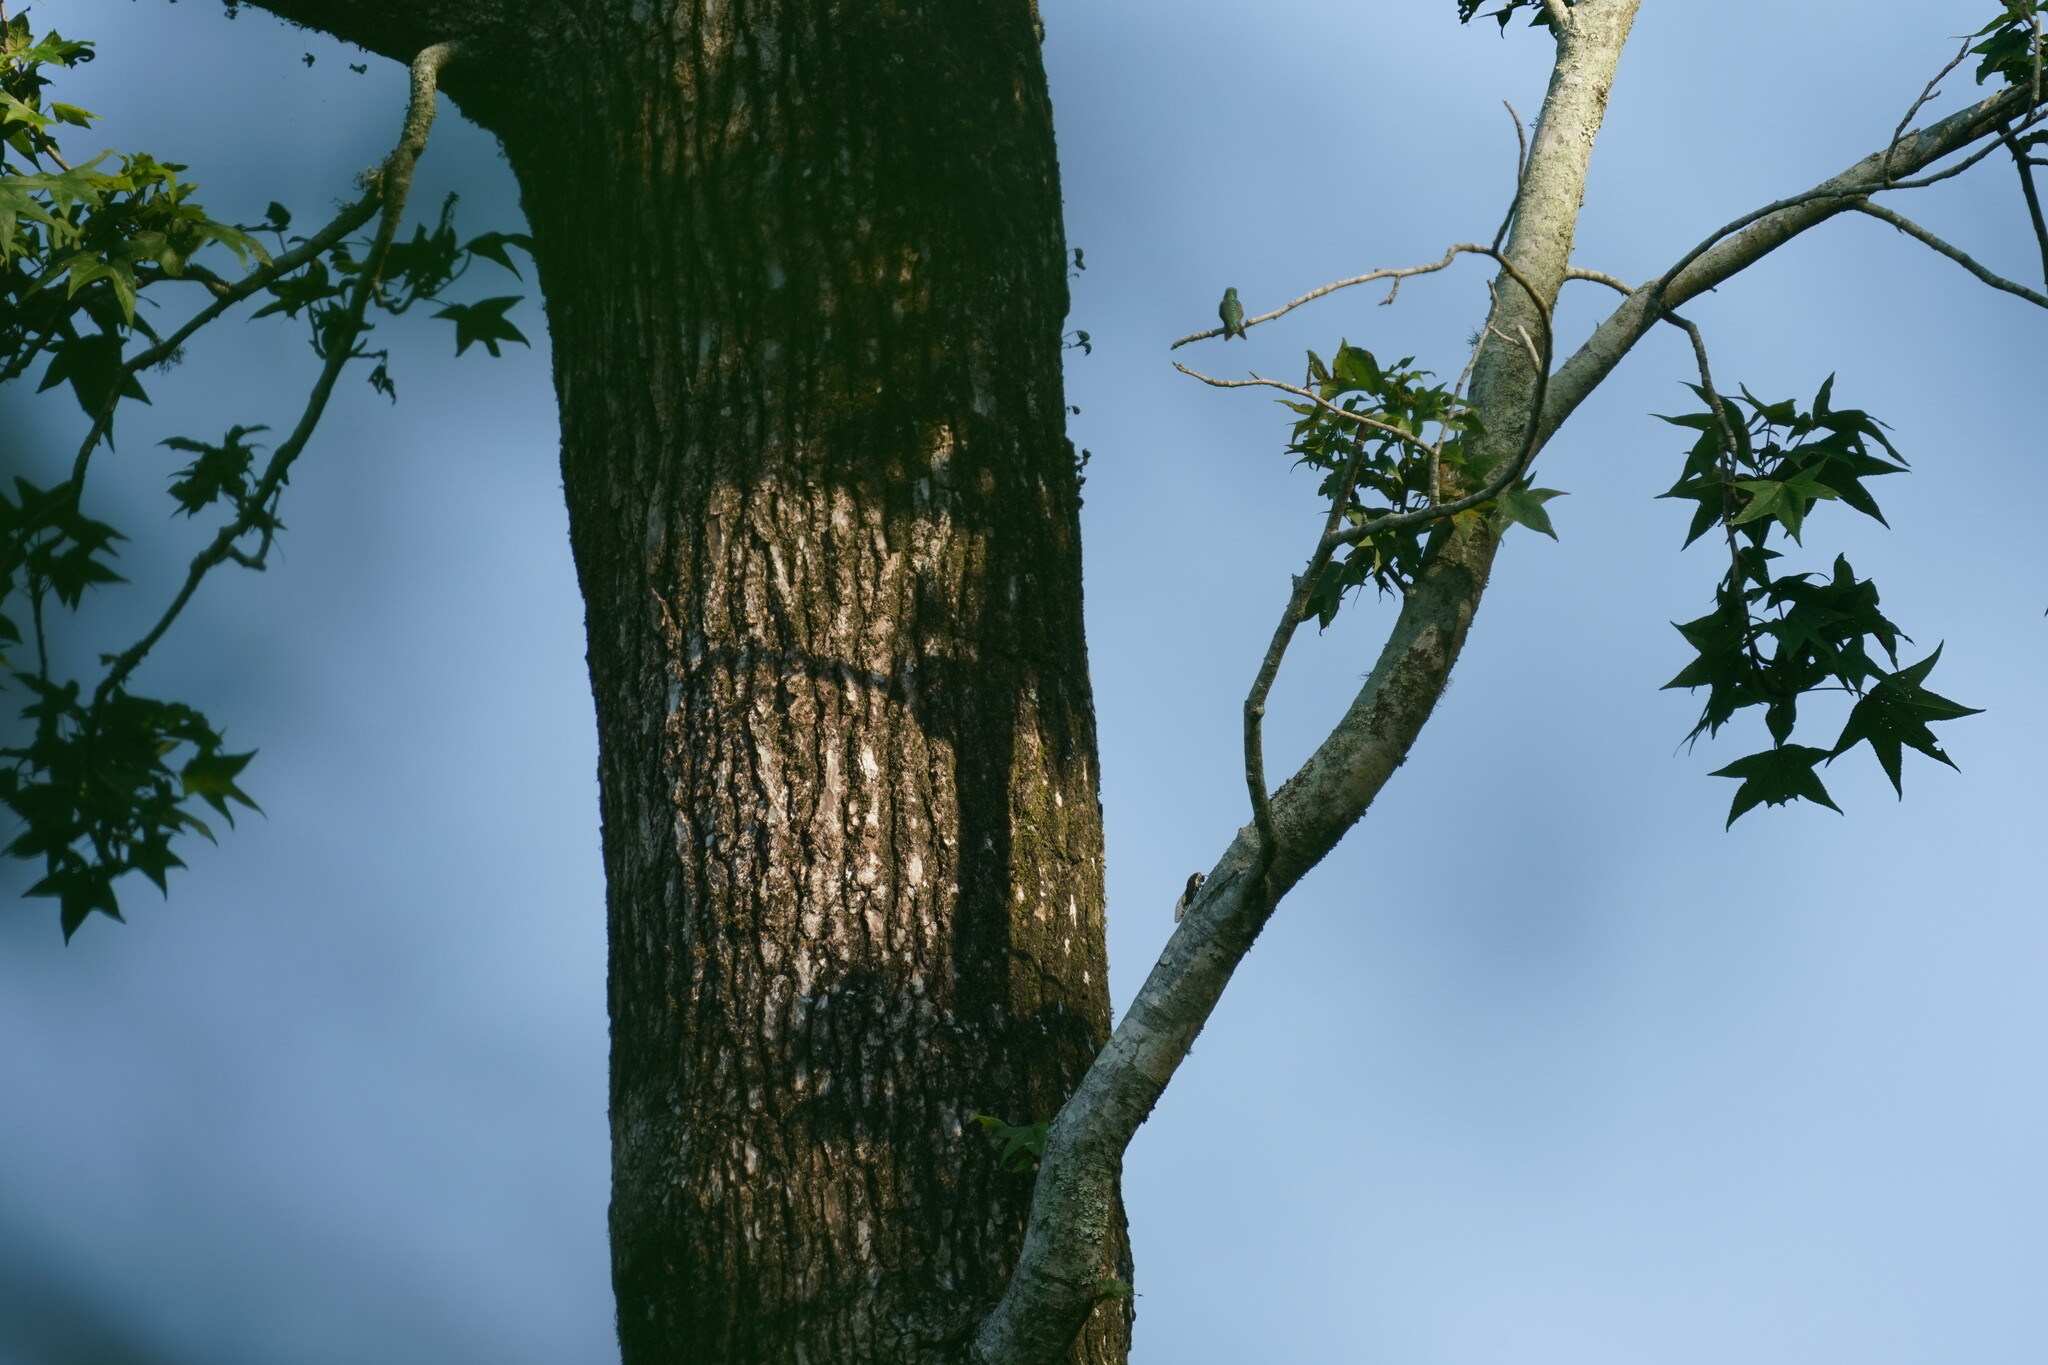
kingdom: Animalia
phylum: Chordata
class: Aves
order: Apodiformes
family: Trochilidae
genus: Archilochus
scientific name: Archilochus colubris
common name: Ruby-throated hummingbird
